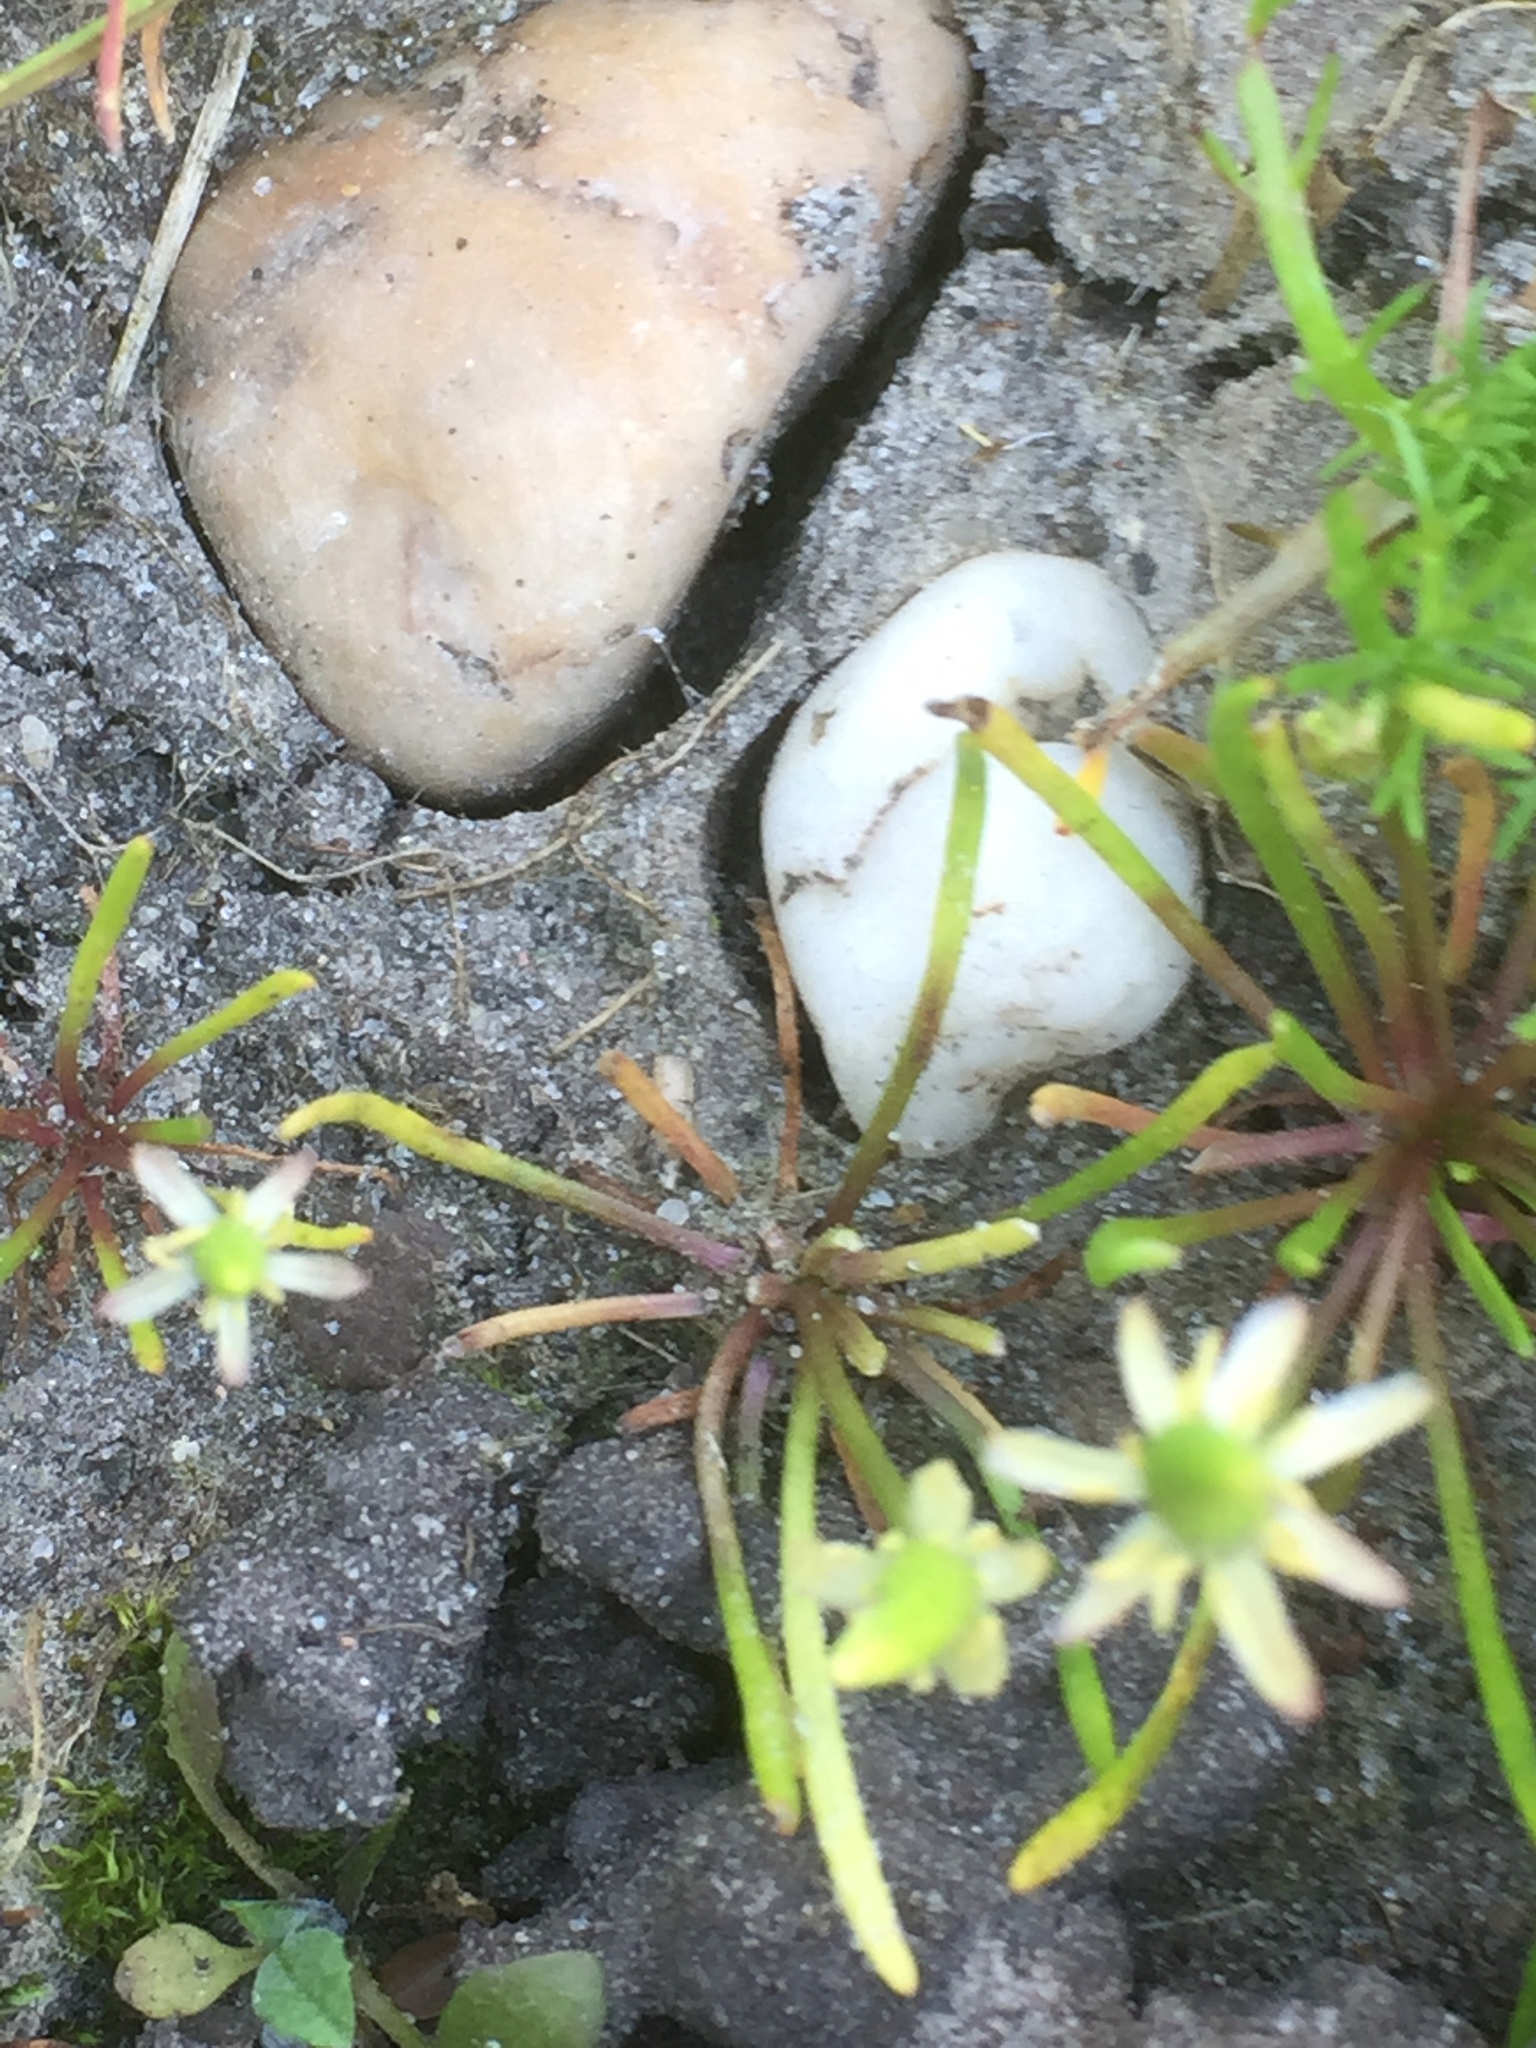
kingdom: Plantae
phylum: Tracheophyta
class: Magnoliopsida
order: Ranunculales
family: Ranunculaceae
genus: Myosurus
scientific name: Myosurus minimus
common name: Mousetail
